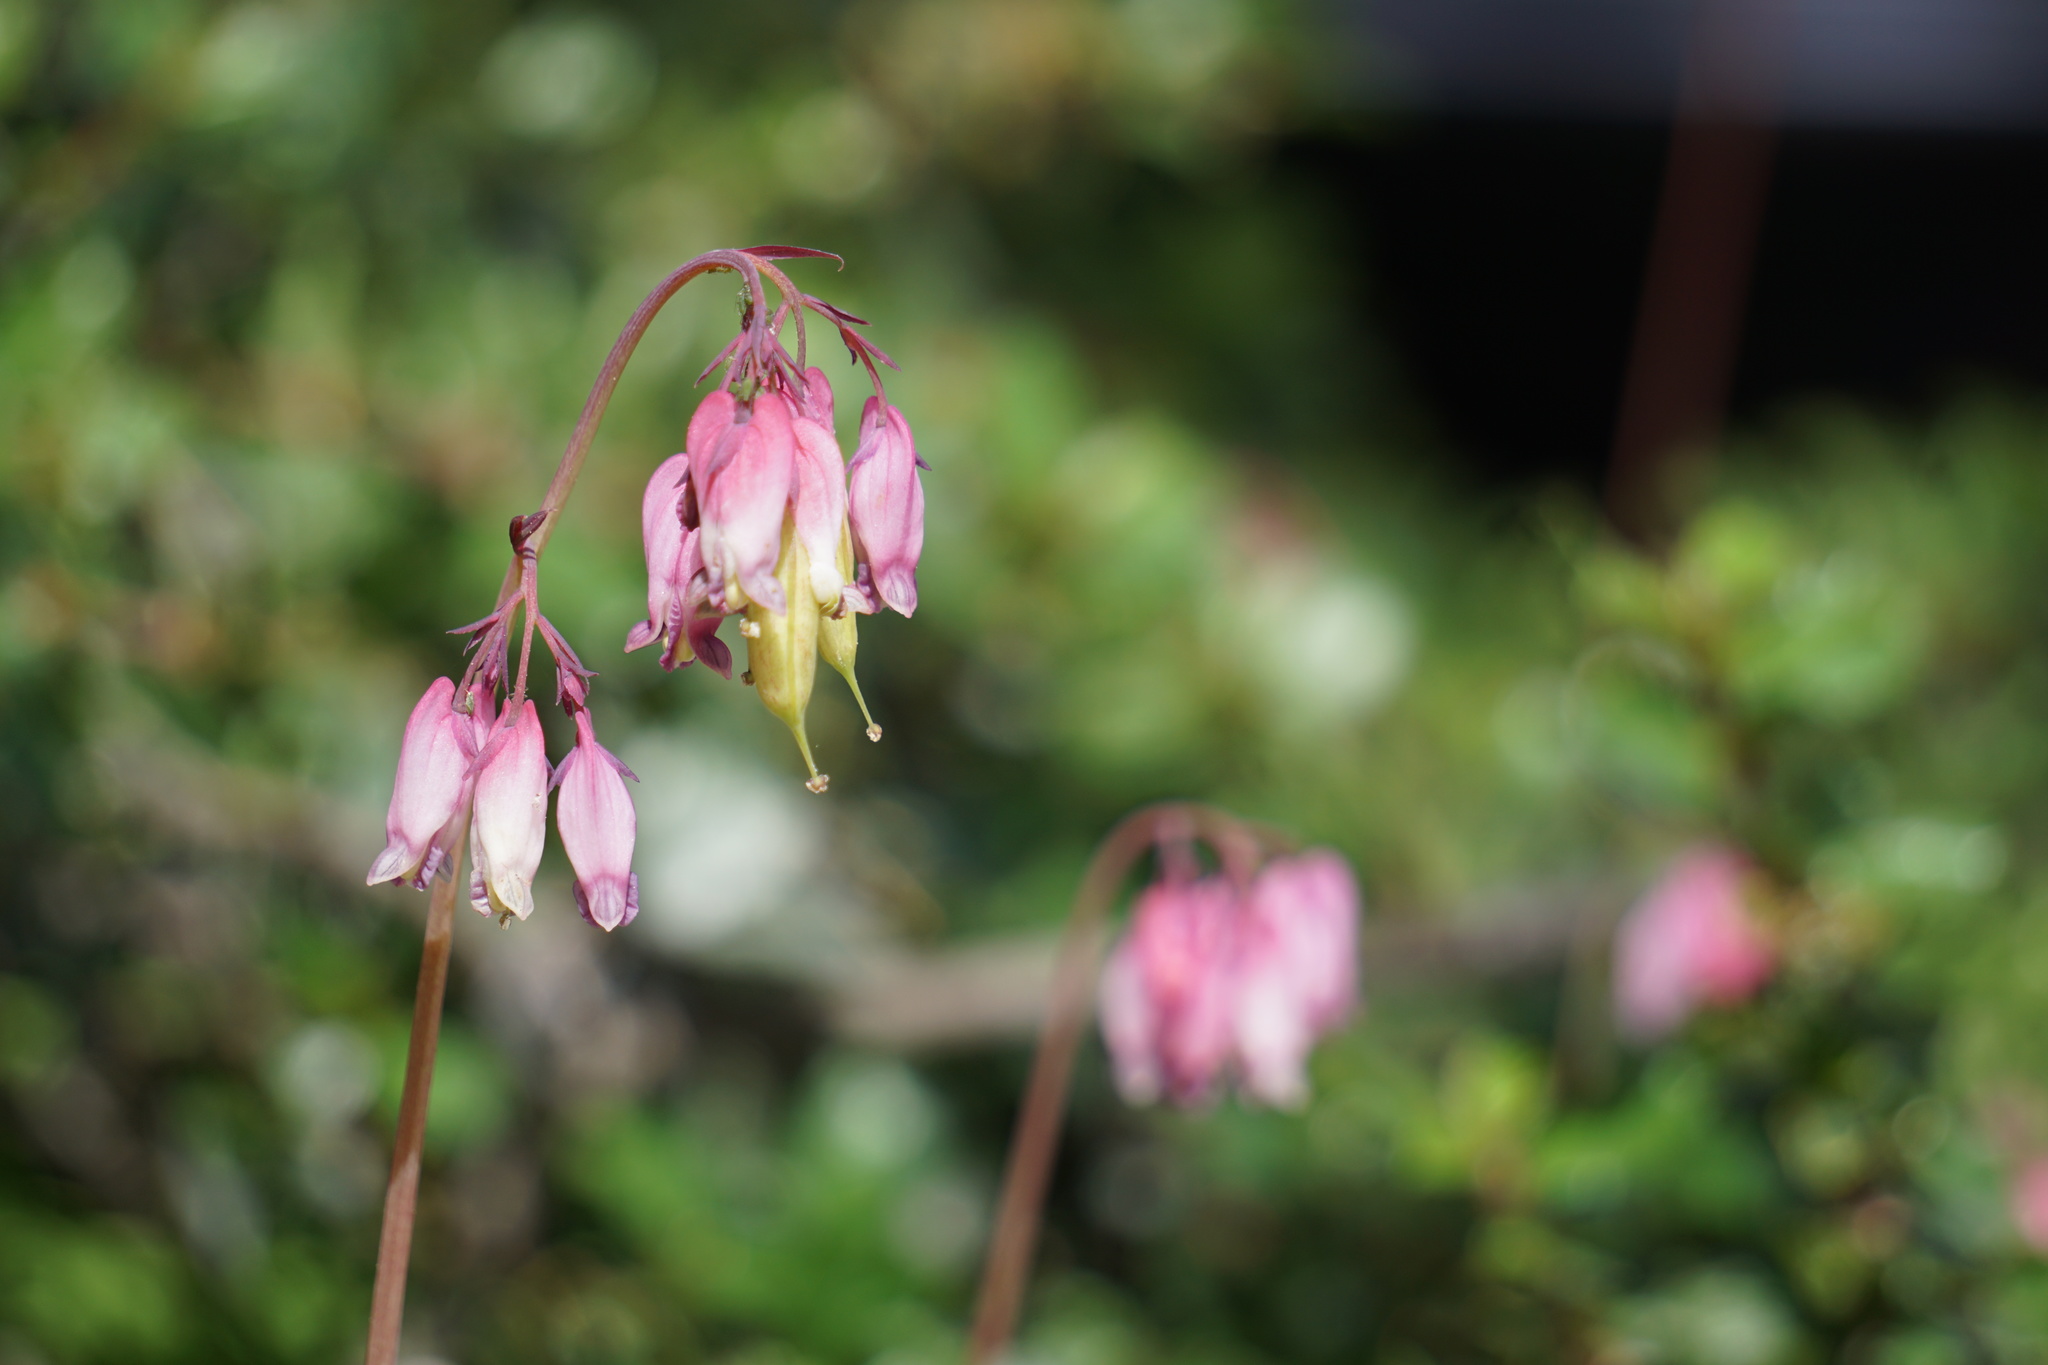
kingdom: Plantae
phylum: Tracheophyta
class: Magnoliopsida
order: Ranunculales
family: Papaveraceae
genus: Dicentra
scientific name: Dicentra formosa
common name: Bleeding-heart
